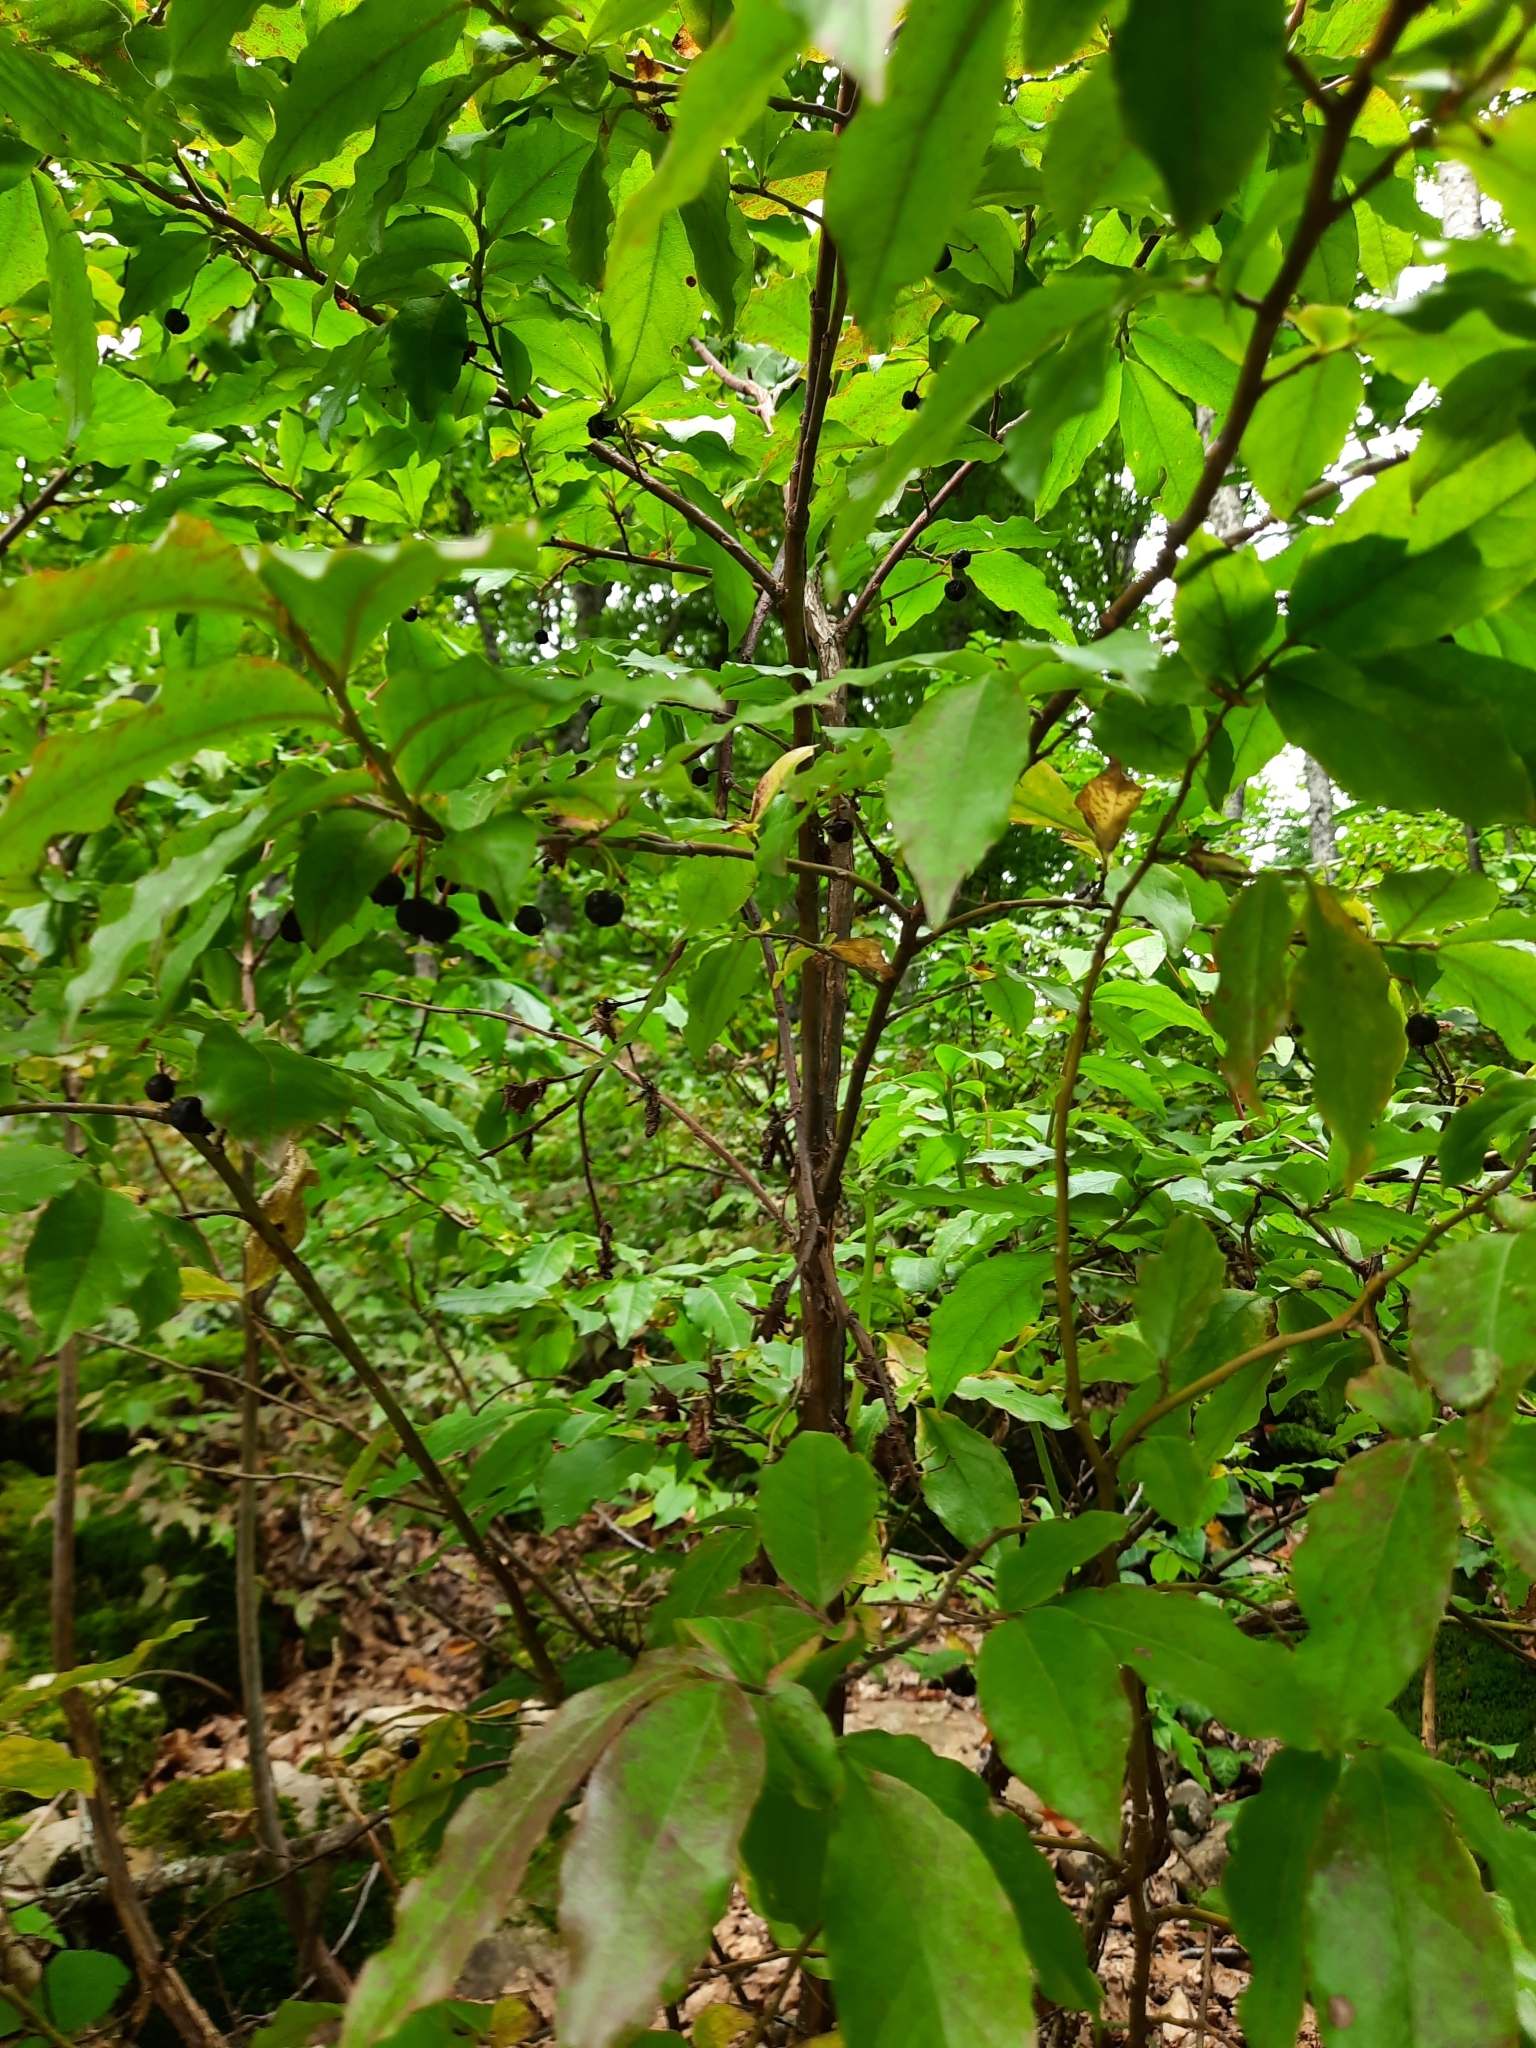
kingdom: Plantae
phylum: Tracheophyta
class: Magnoliopsida
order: Ericales
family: Ericaceae
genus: Vaccinium
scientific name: Vaccinium arctostaphylos
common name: Caucasian whortleberry
